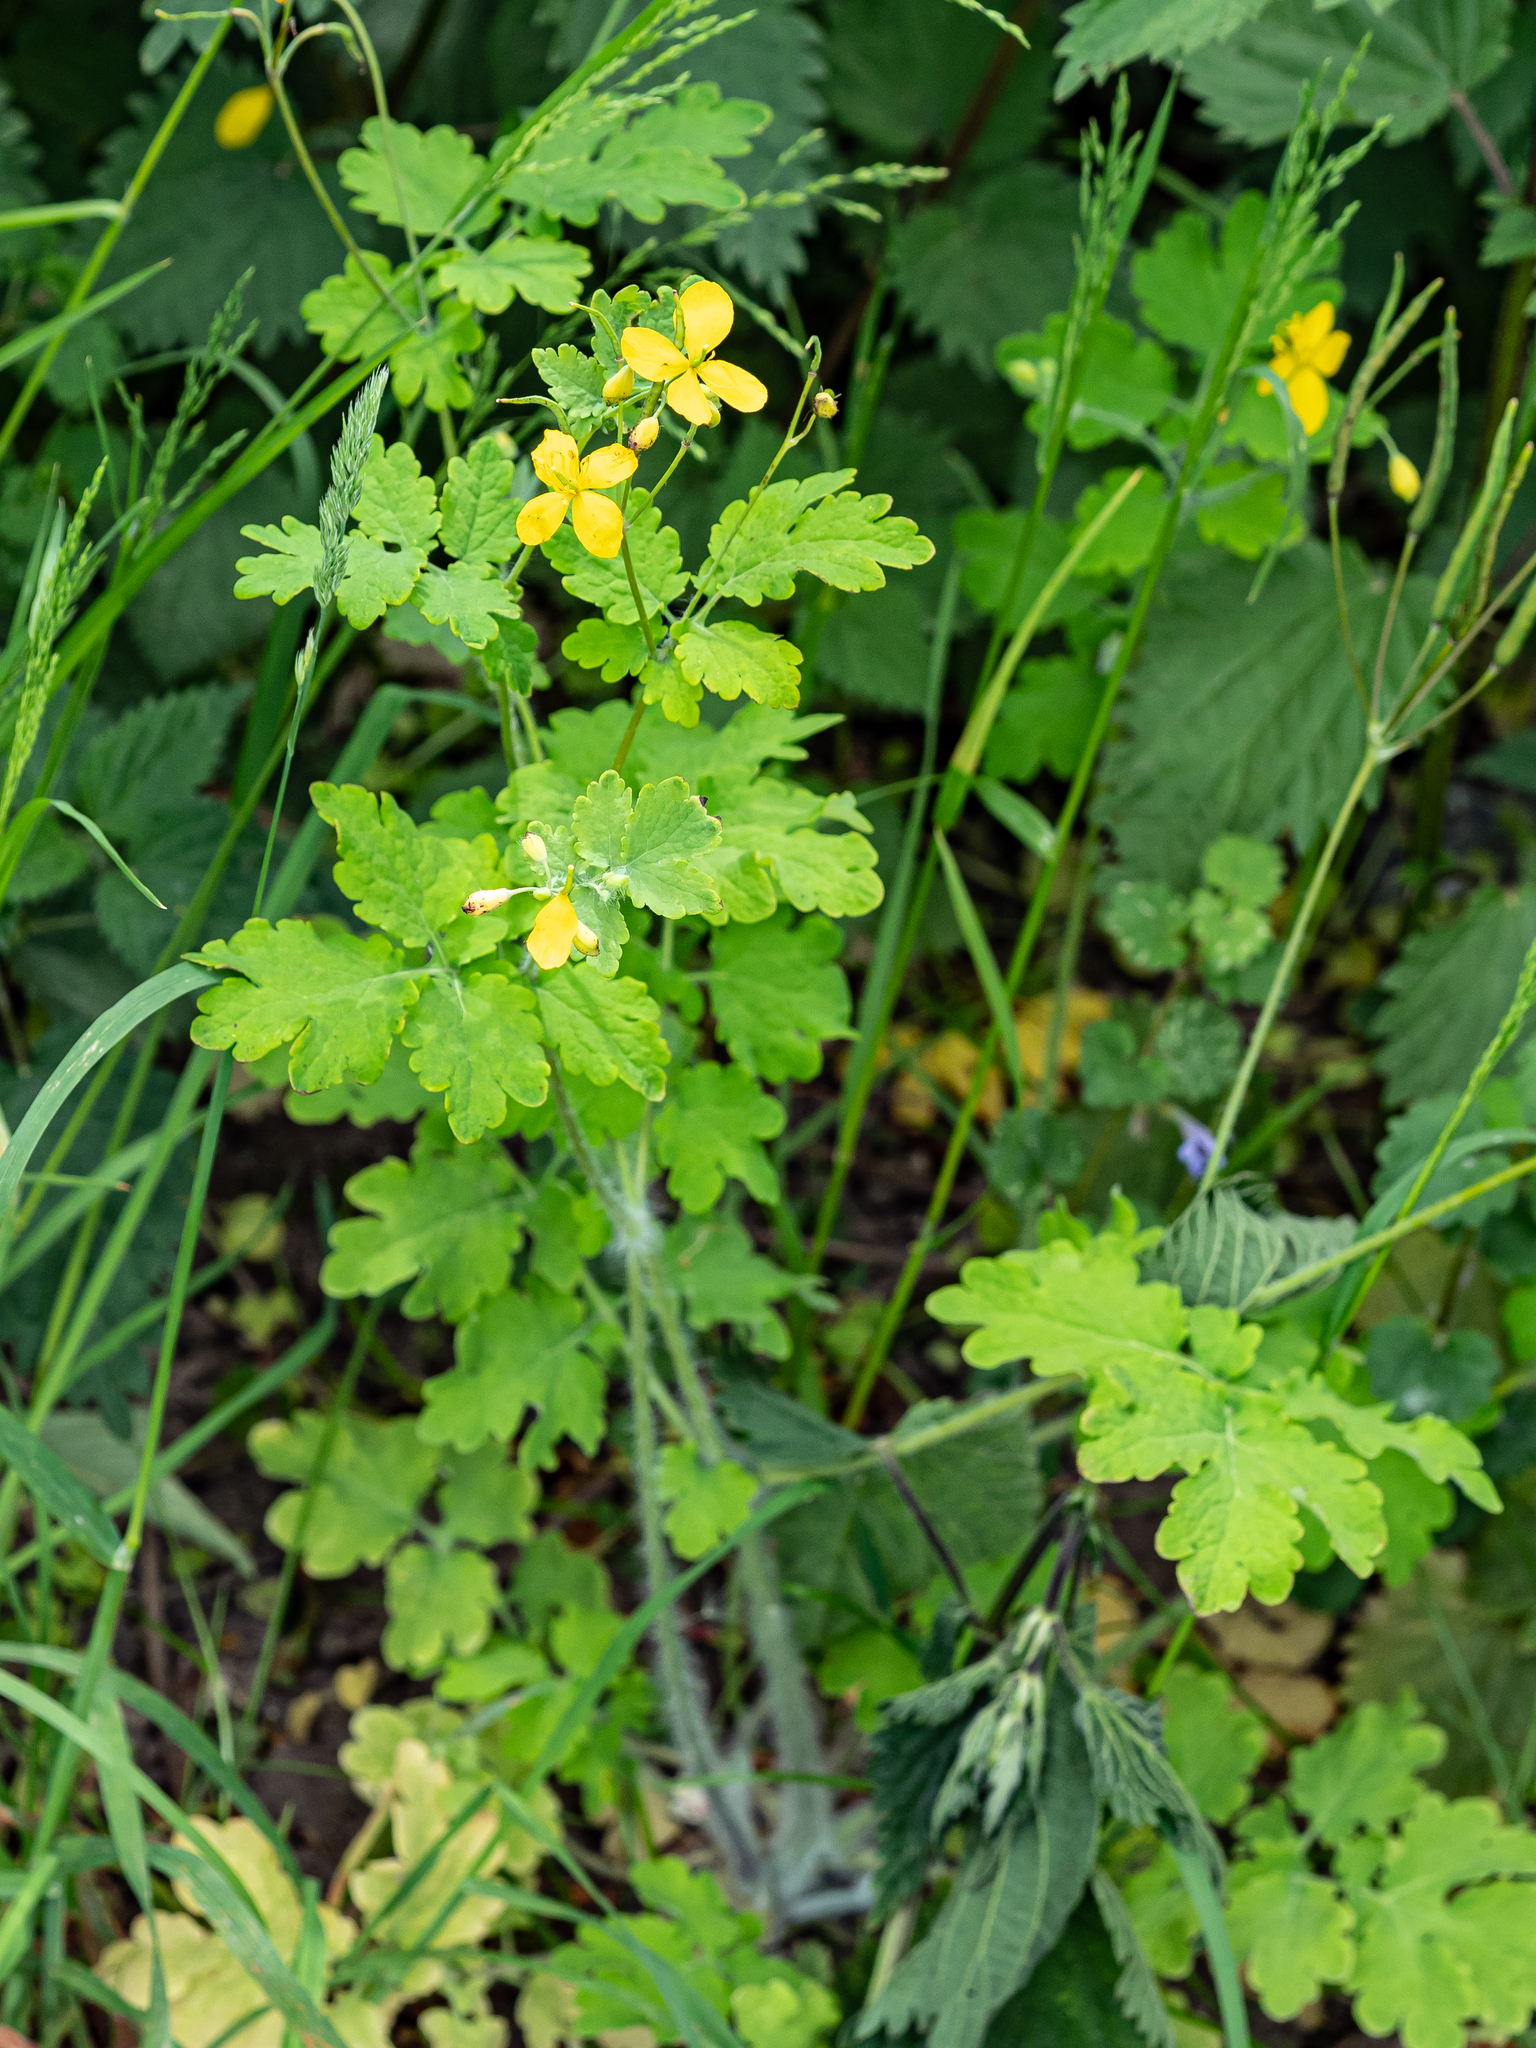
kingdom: Plantae
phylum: Tracheophyta
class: Magnoliopsida
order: Ranunculales
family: Papaveraceae
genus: Chelidonium
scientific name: Chelidonium majus
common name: Greater celandine
